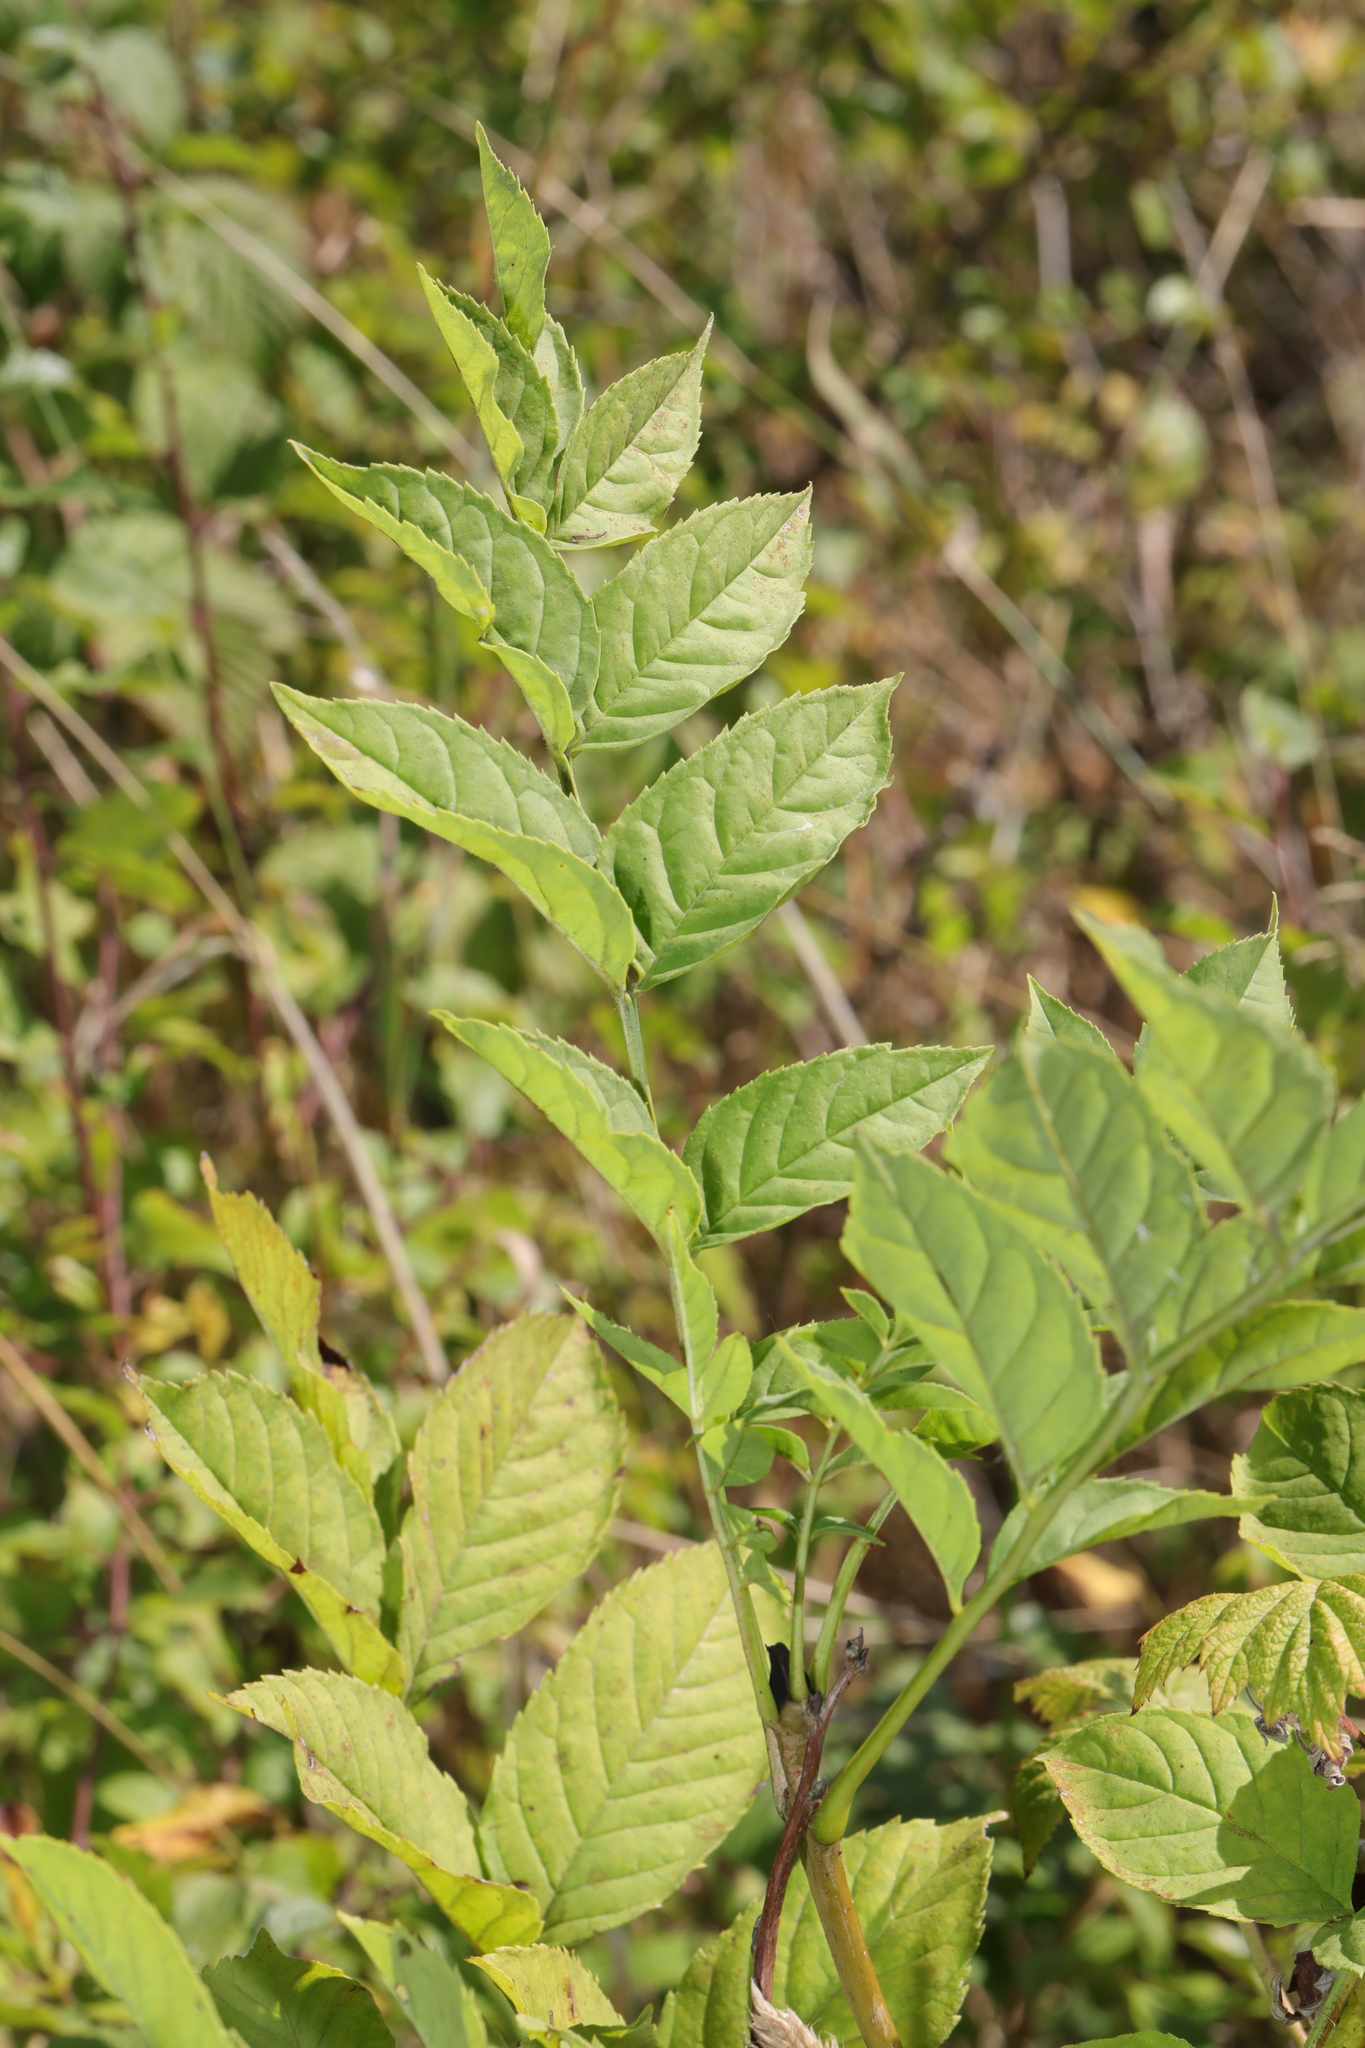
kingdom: Plantae
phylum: Tracheophyta
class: Magnoliopsida
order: Lamiales
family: Oleaceae
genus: Fraxinus
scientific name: Fraxinus excelsior
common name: European ash
